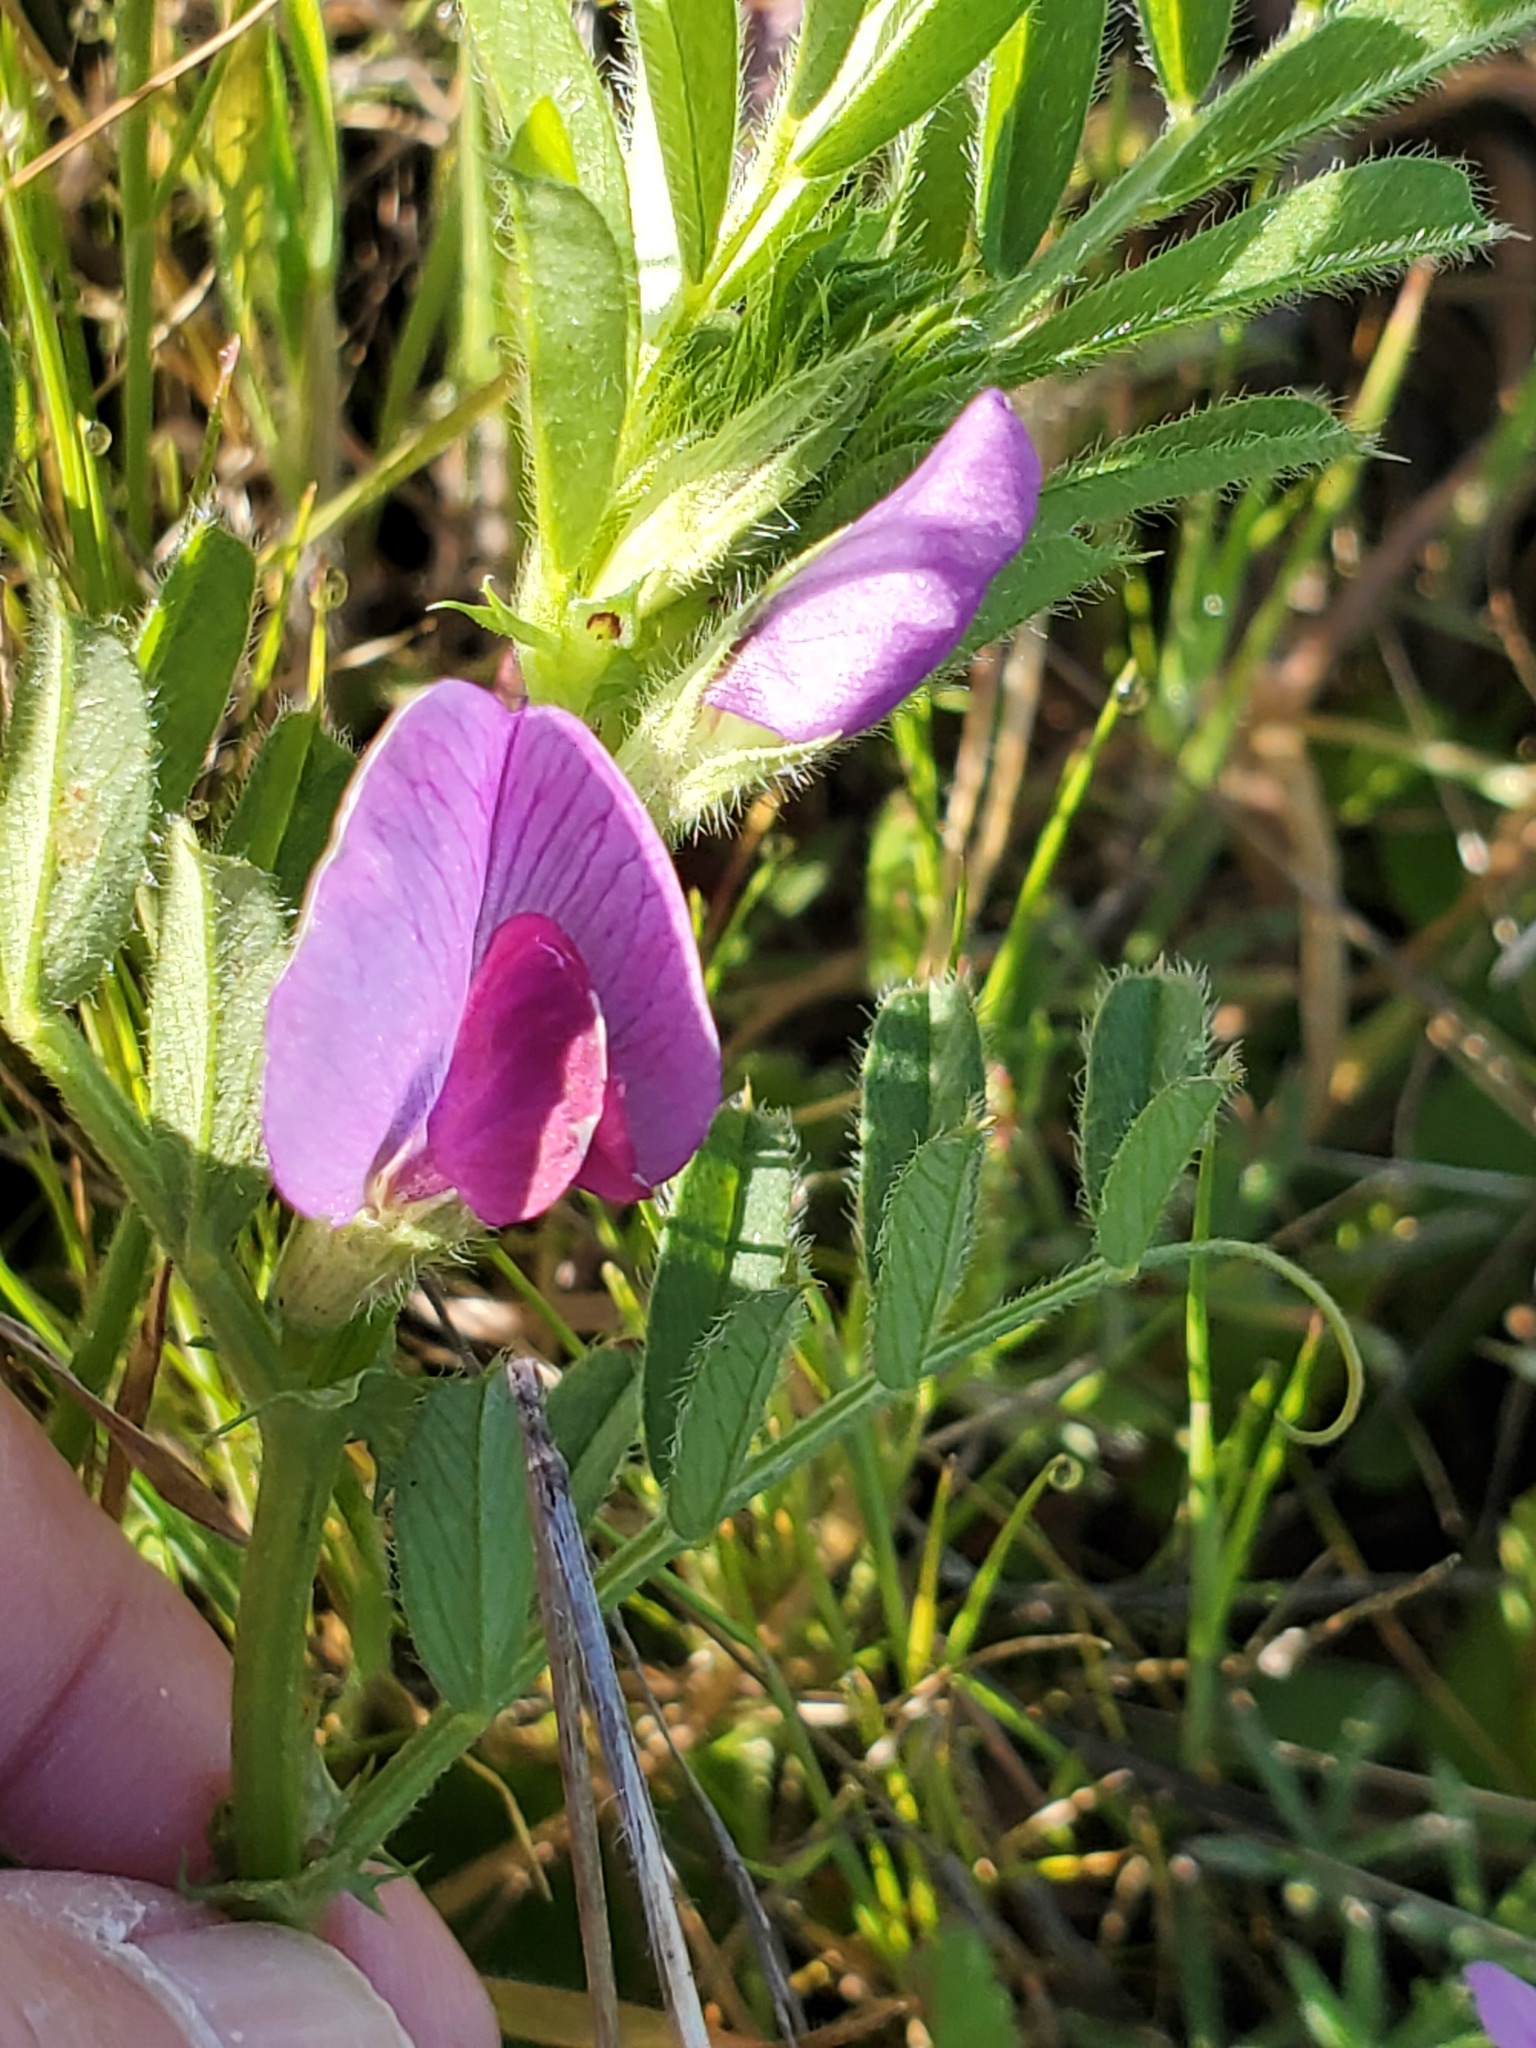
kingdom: Plantae
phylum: Tracheophyta
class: Magnoliopsida
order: Fabales
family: Fabaceae
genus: Vicia
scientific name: Vicia sativa
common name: Garden vetch
